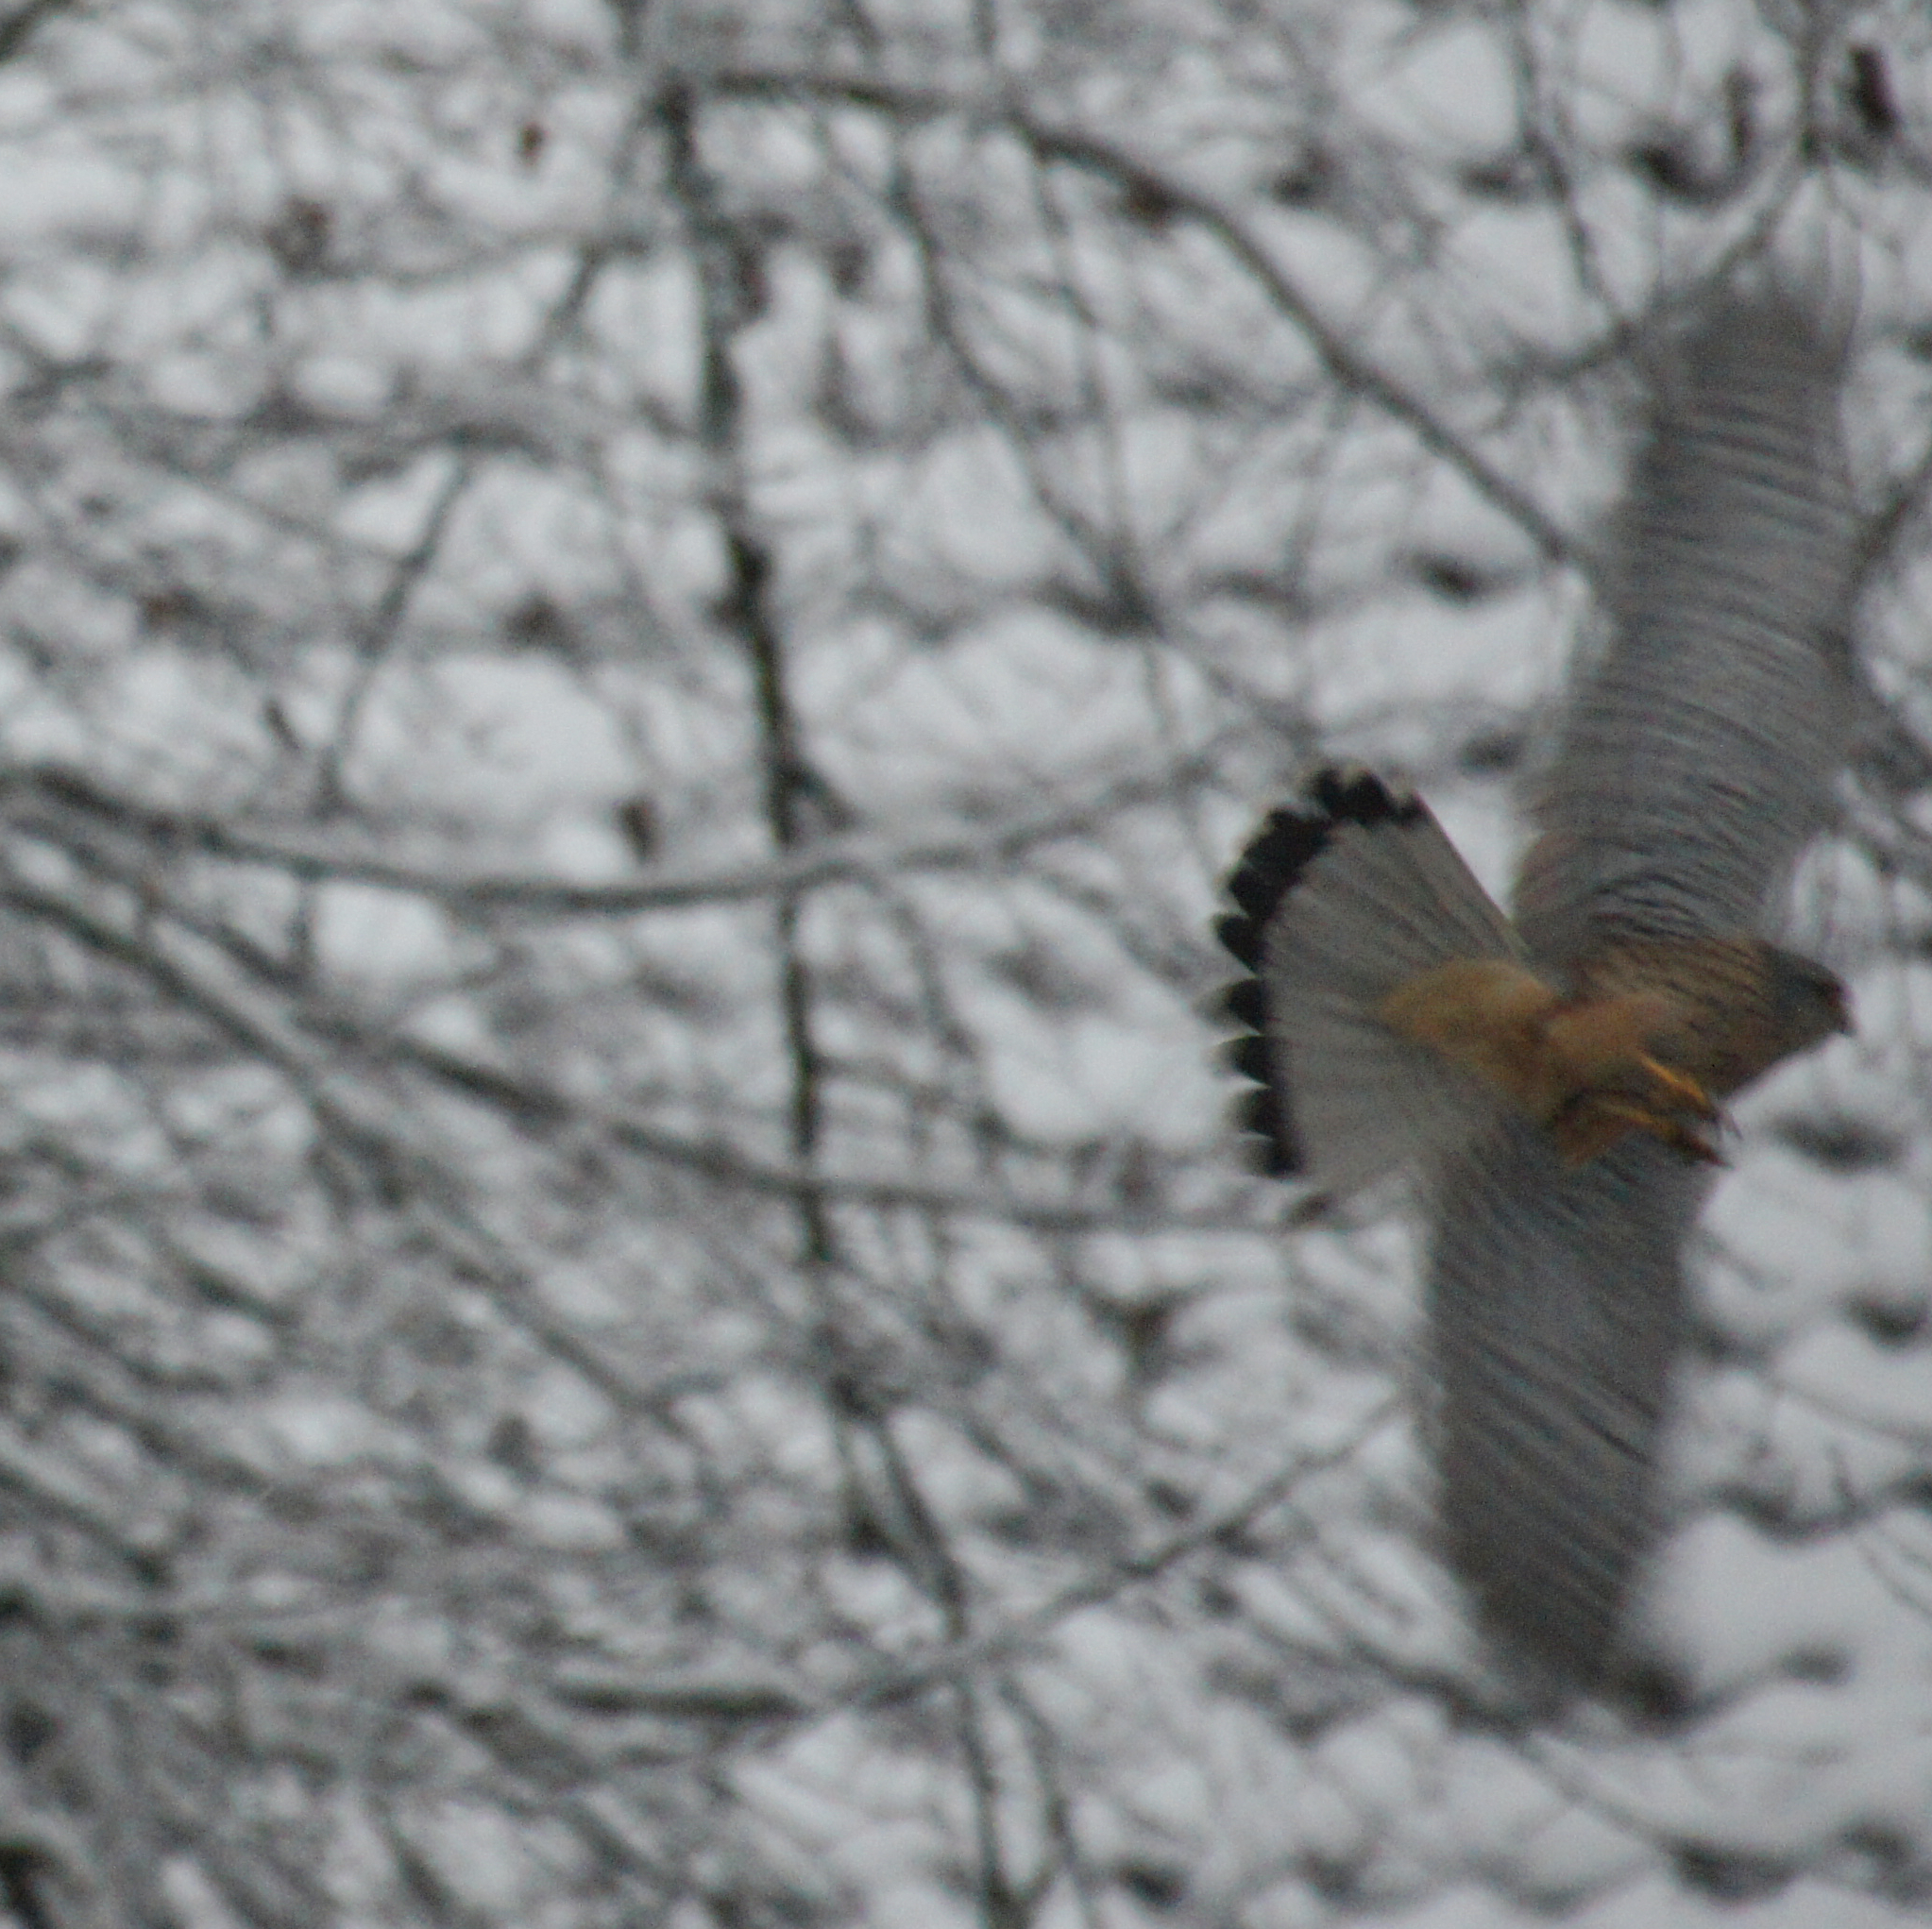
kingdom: Animalia
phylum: Chordata
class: Aves
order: Falconiformes
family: Falconidae
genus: Falco
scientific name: Falco tinnunculus
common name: Common kestrel
